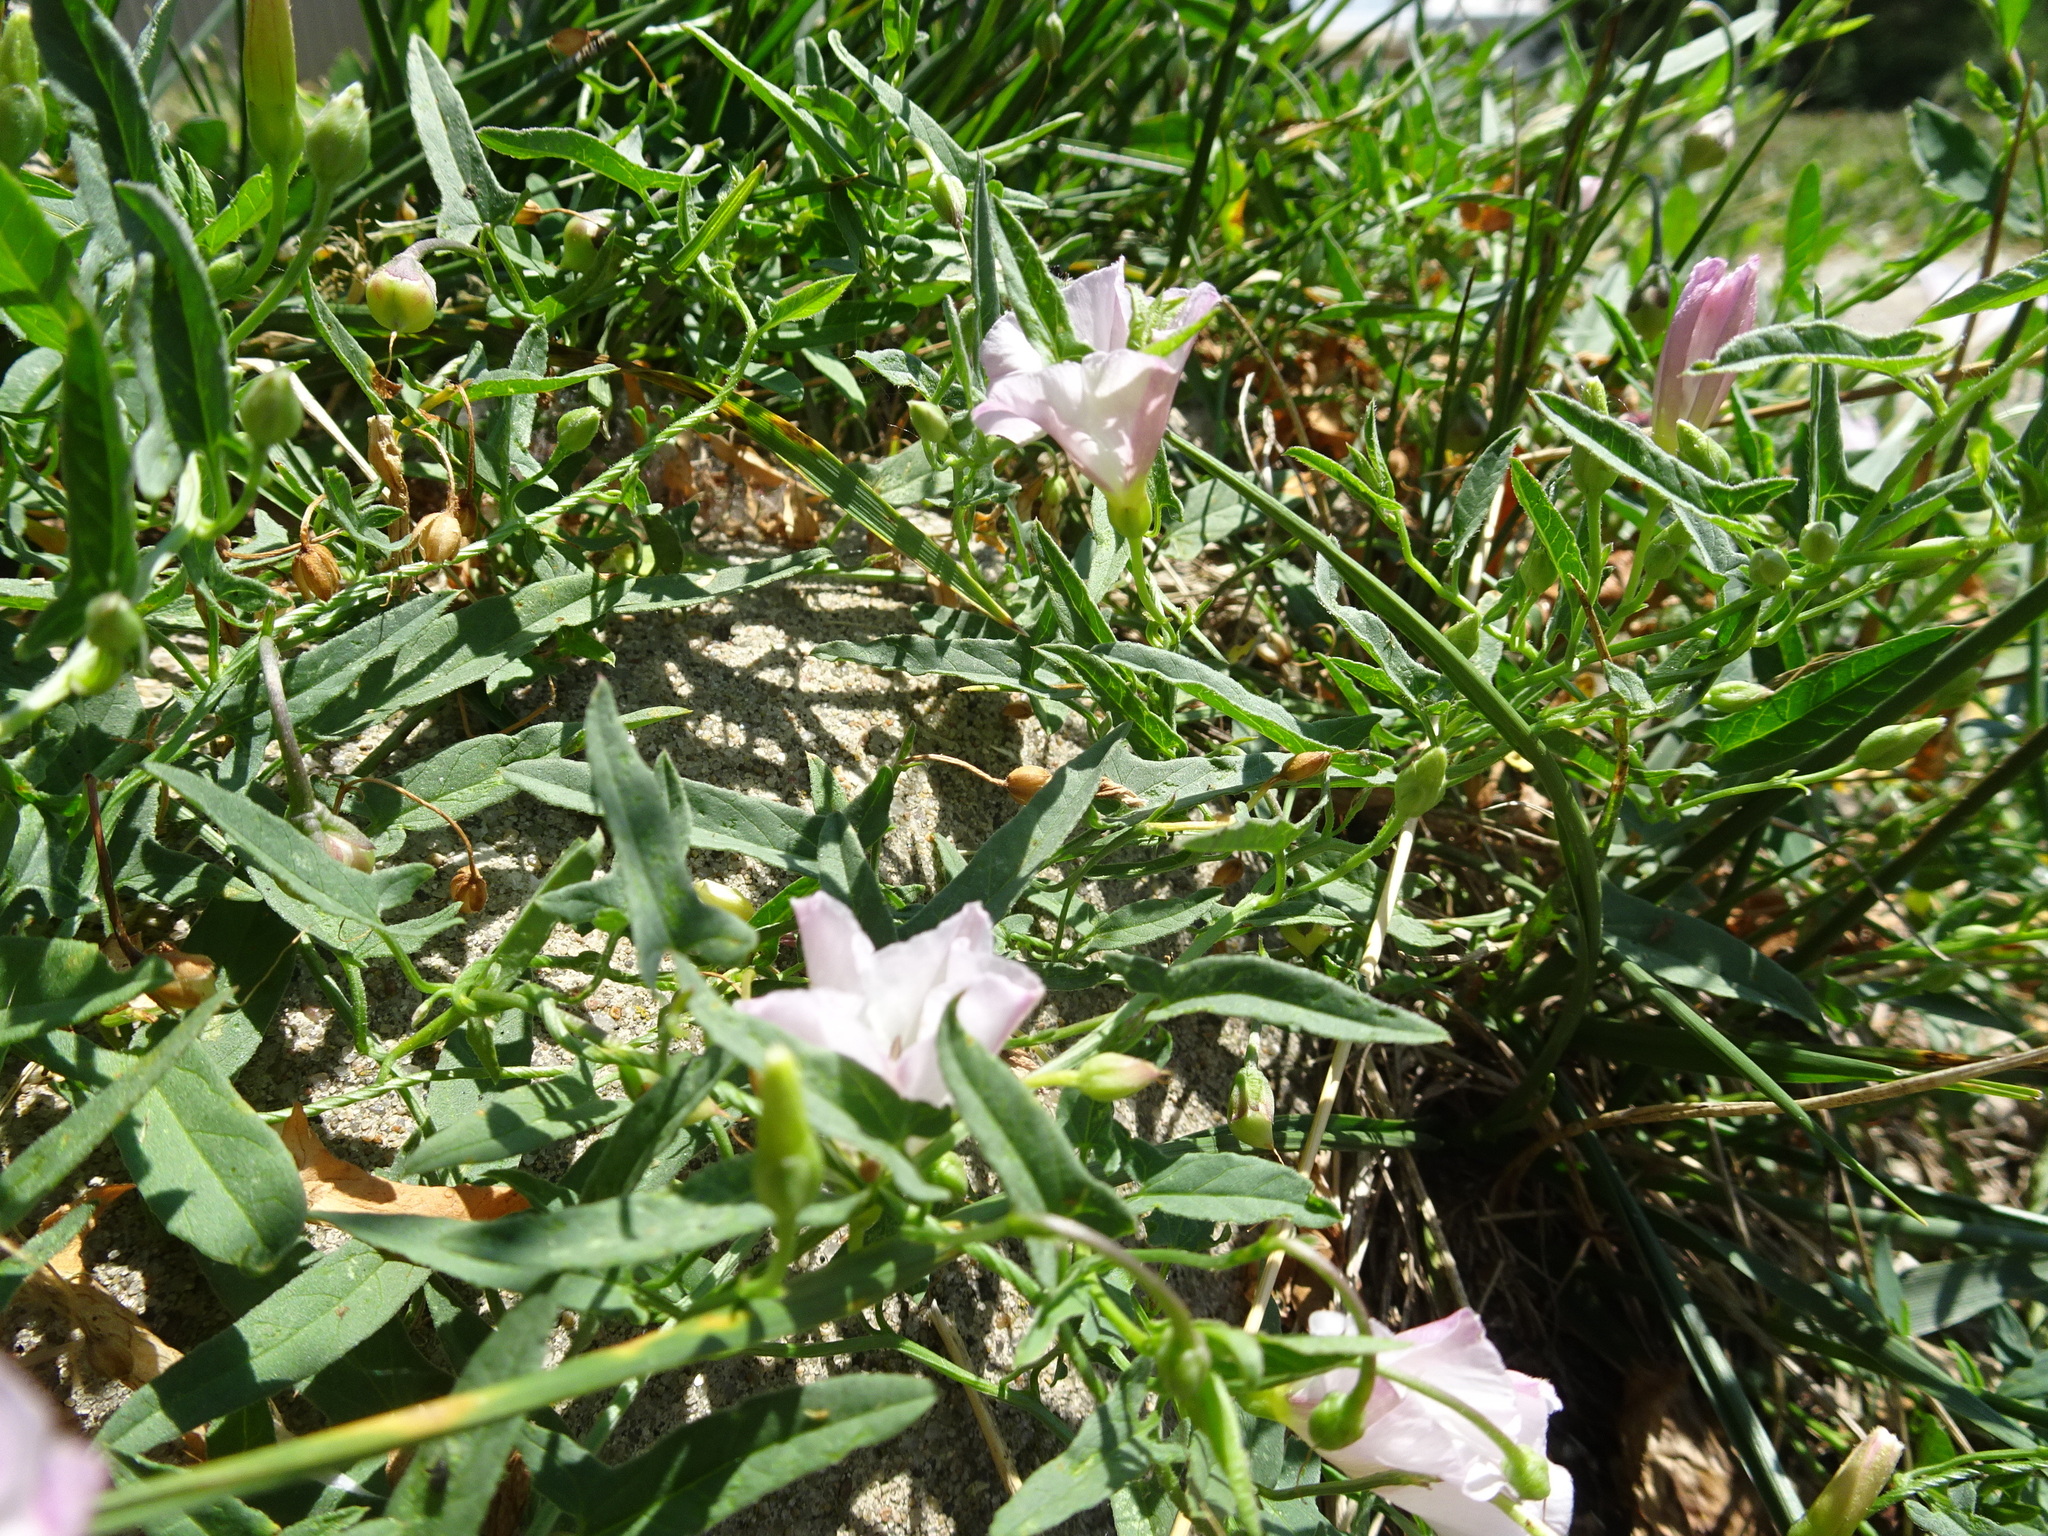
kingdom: Plantae
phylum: Tracheophyta
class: Magnoliopsida
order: Solanales
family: Convolvulaceae
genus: Convolvulus
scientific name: Convolvulus arvensis
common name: Field bindweed
